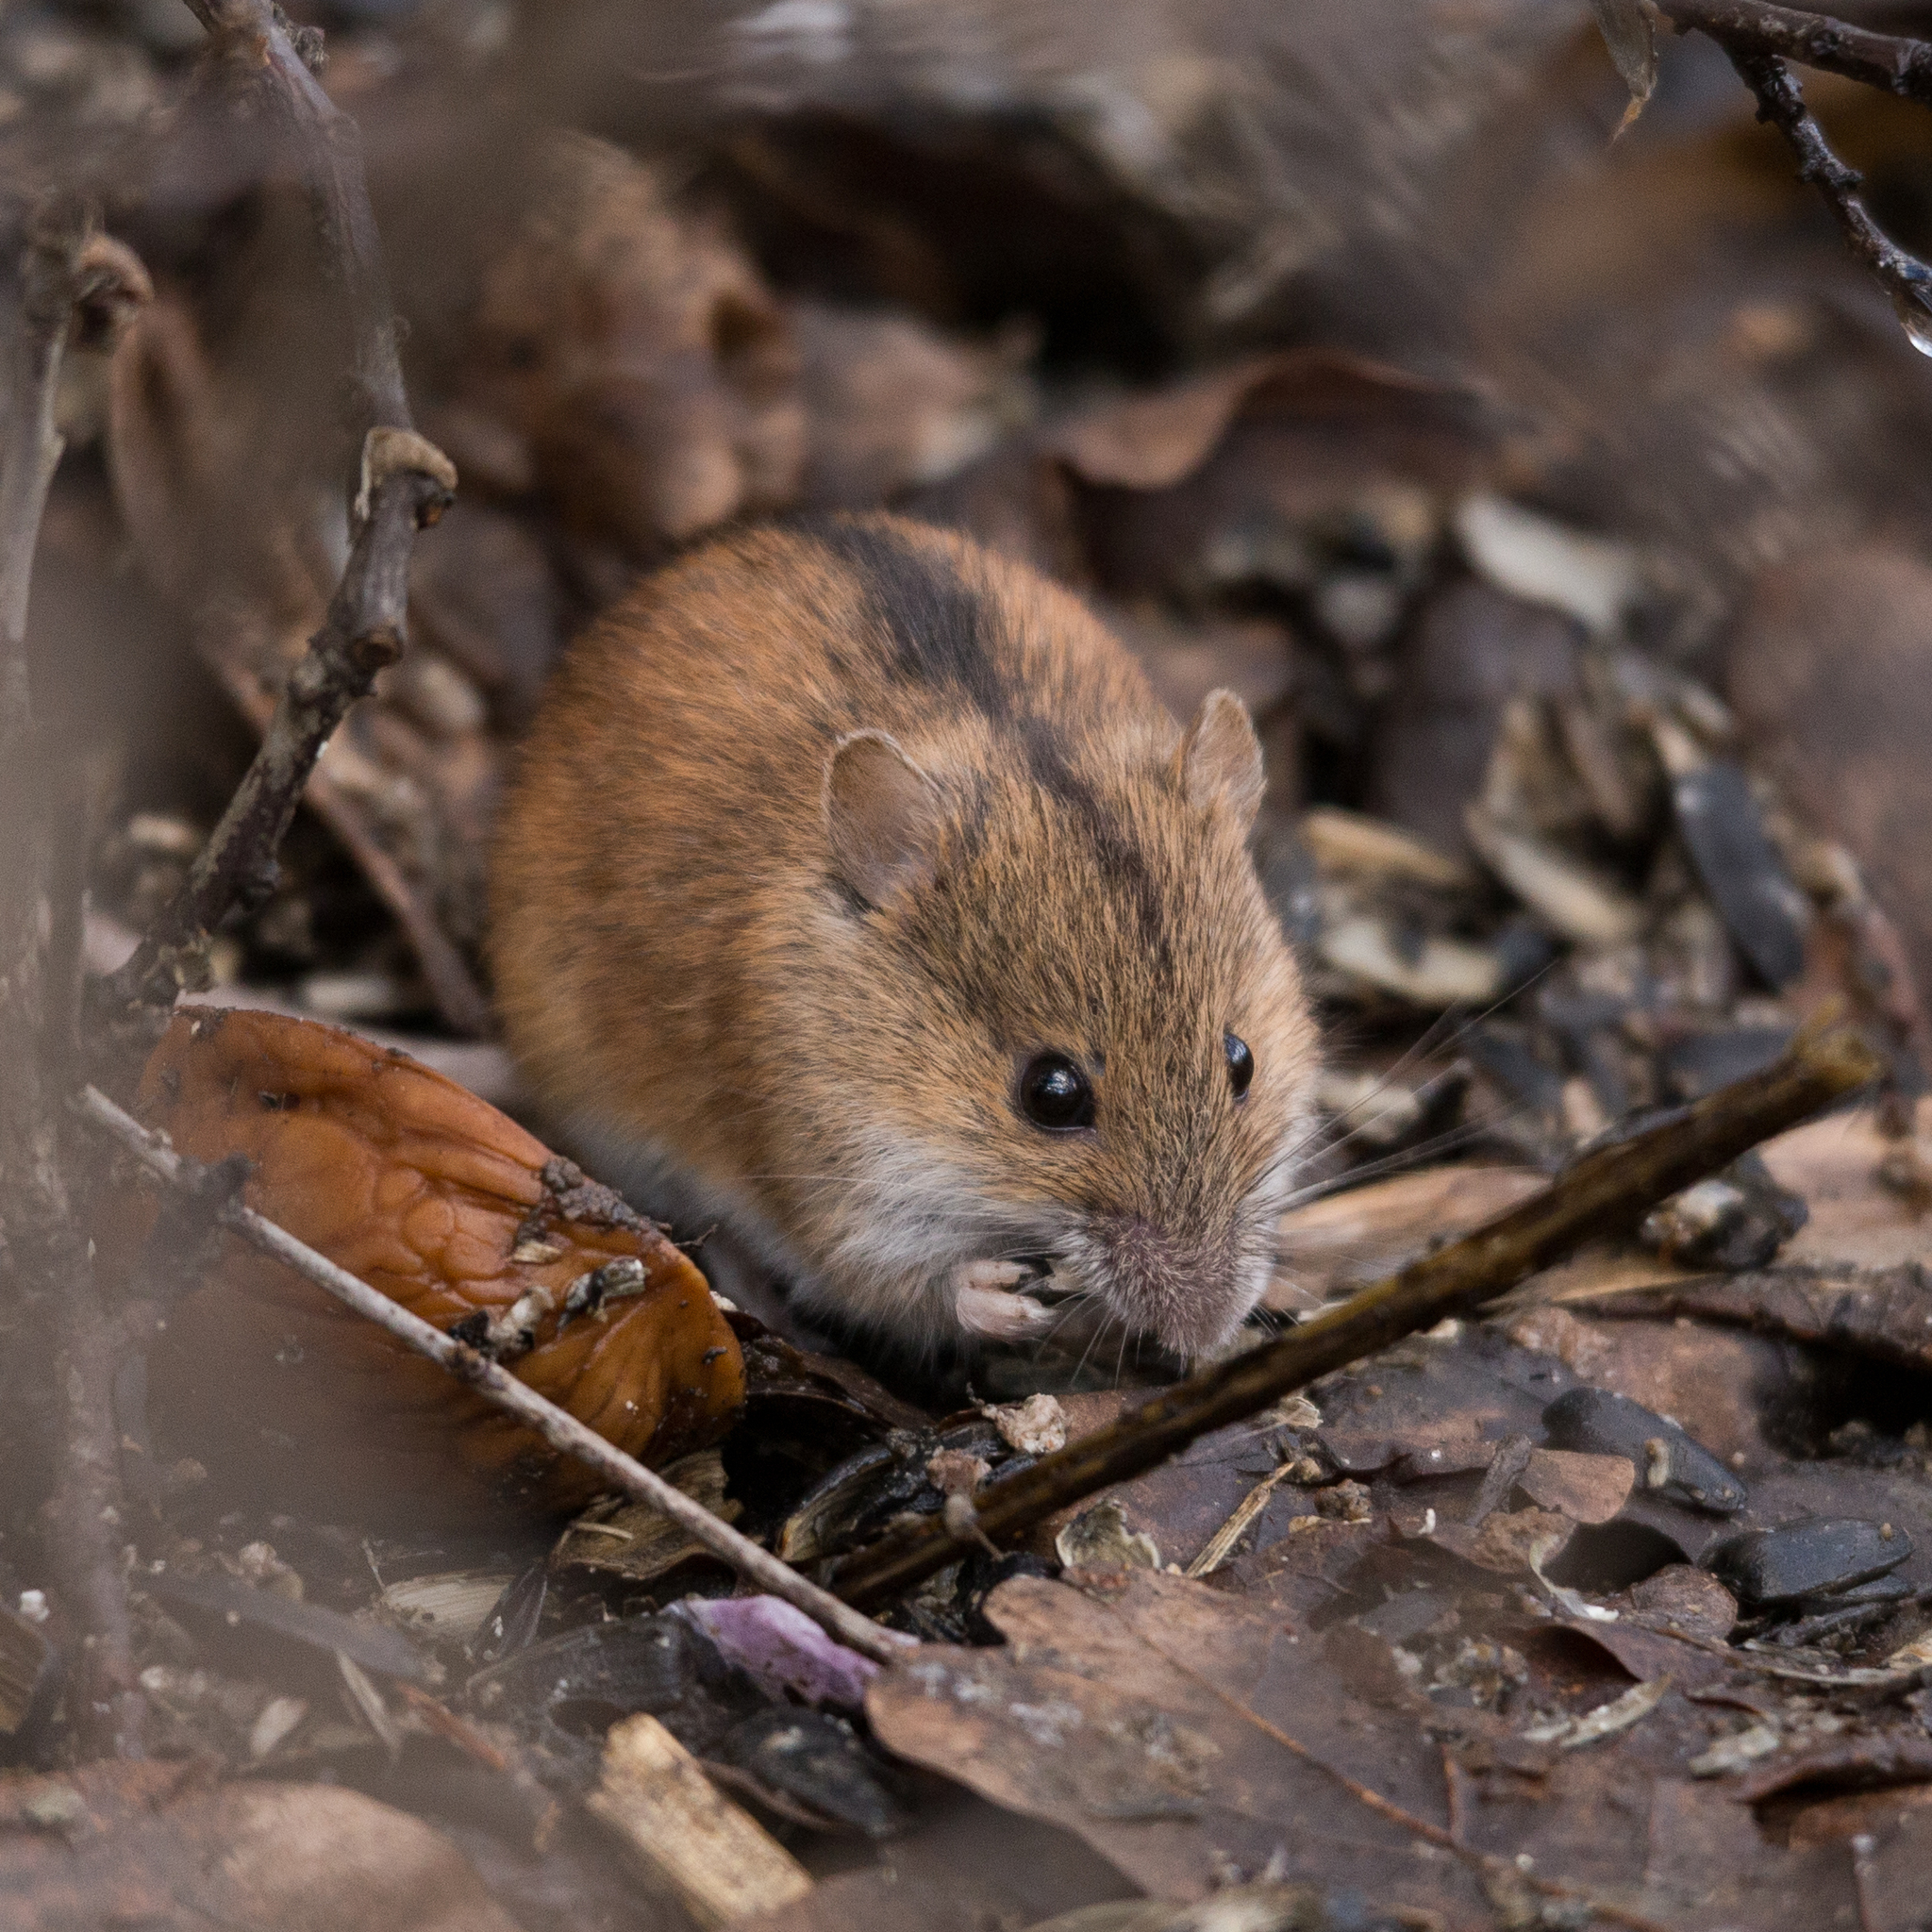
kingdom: Animalia
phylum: Chordata
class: Mammalia
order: Rodentia
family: Muridae
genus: Apodemus
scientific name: Apodemus agrarius
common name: Striped field mouse
